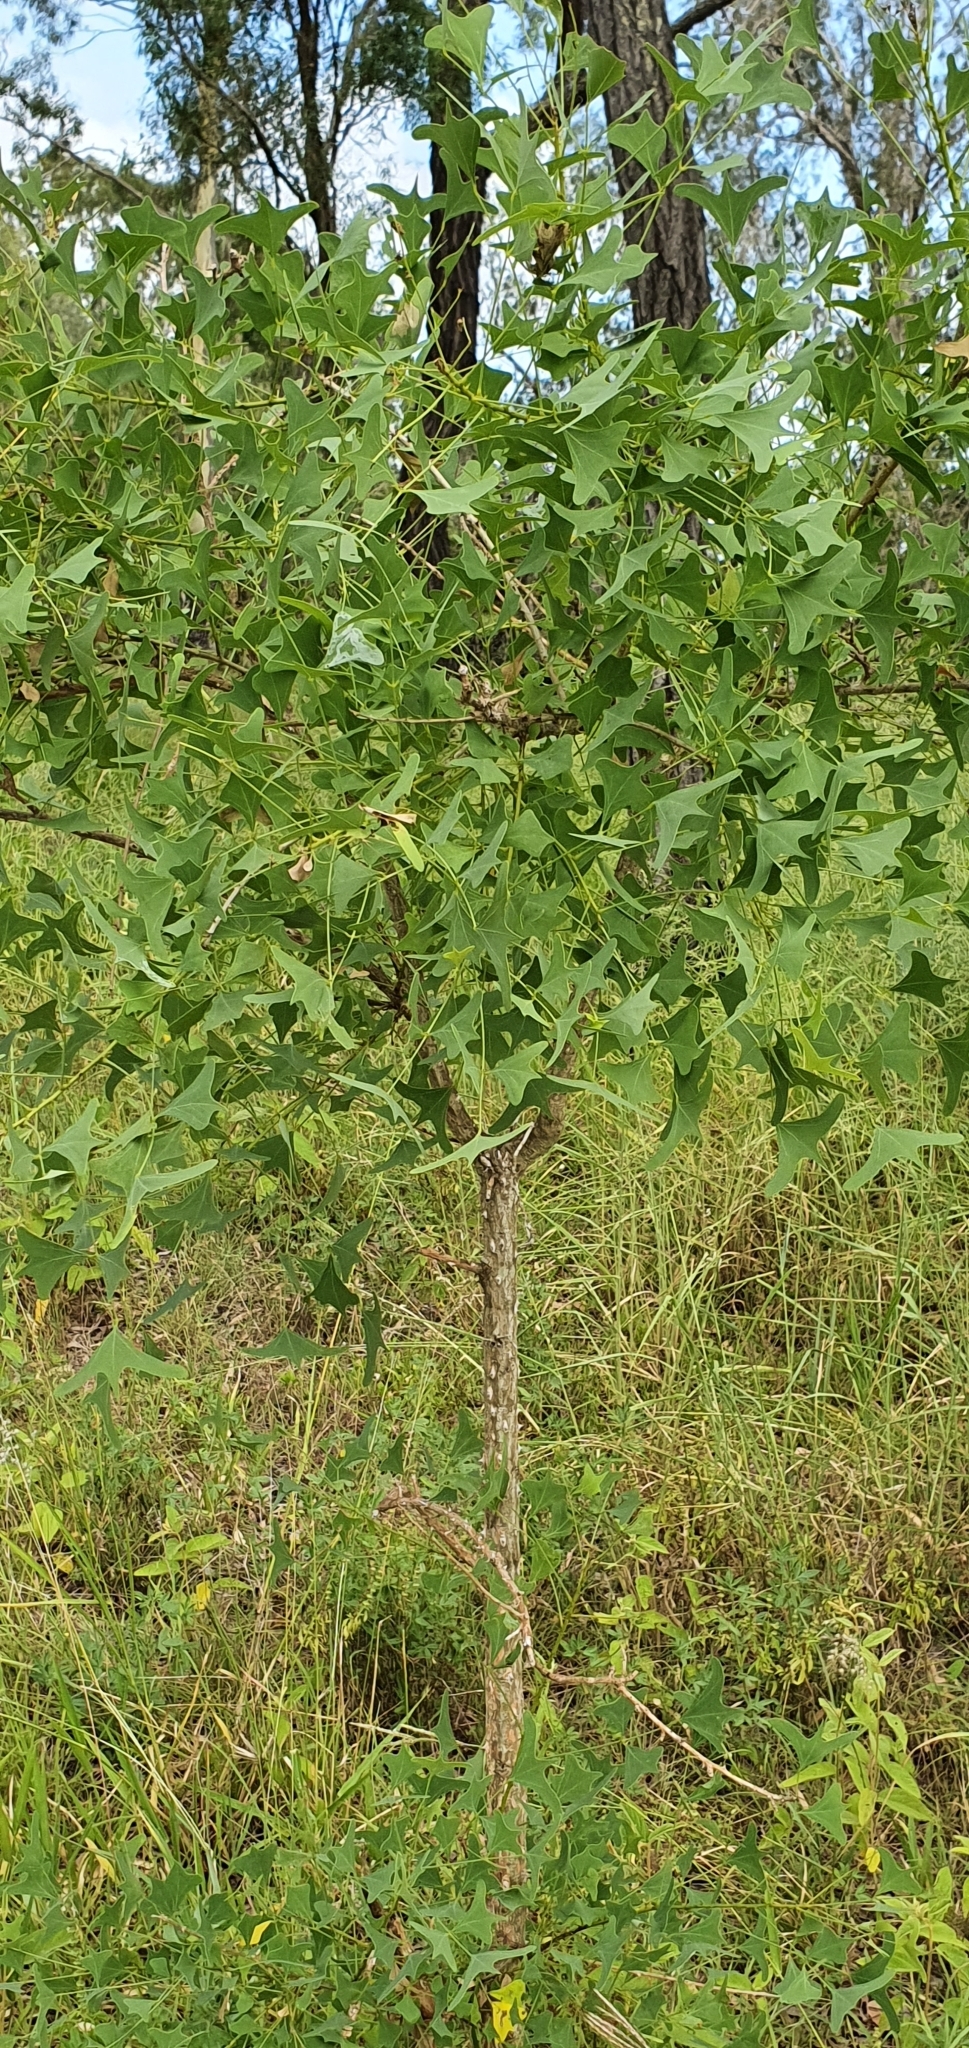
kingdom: Plantae
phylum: Tracheophyta
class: Magnoliopsida
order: Fabales
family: Fabaceae
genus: Erythrina
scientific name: Erythrina vespertilio
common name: Bat-wing coral tree
